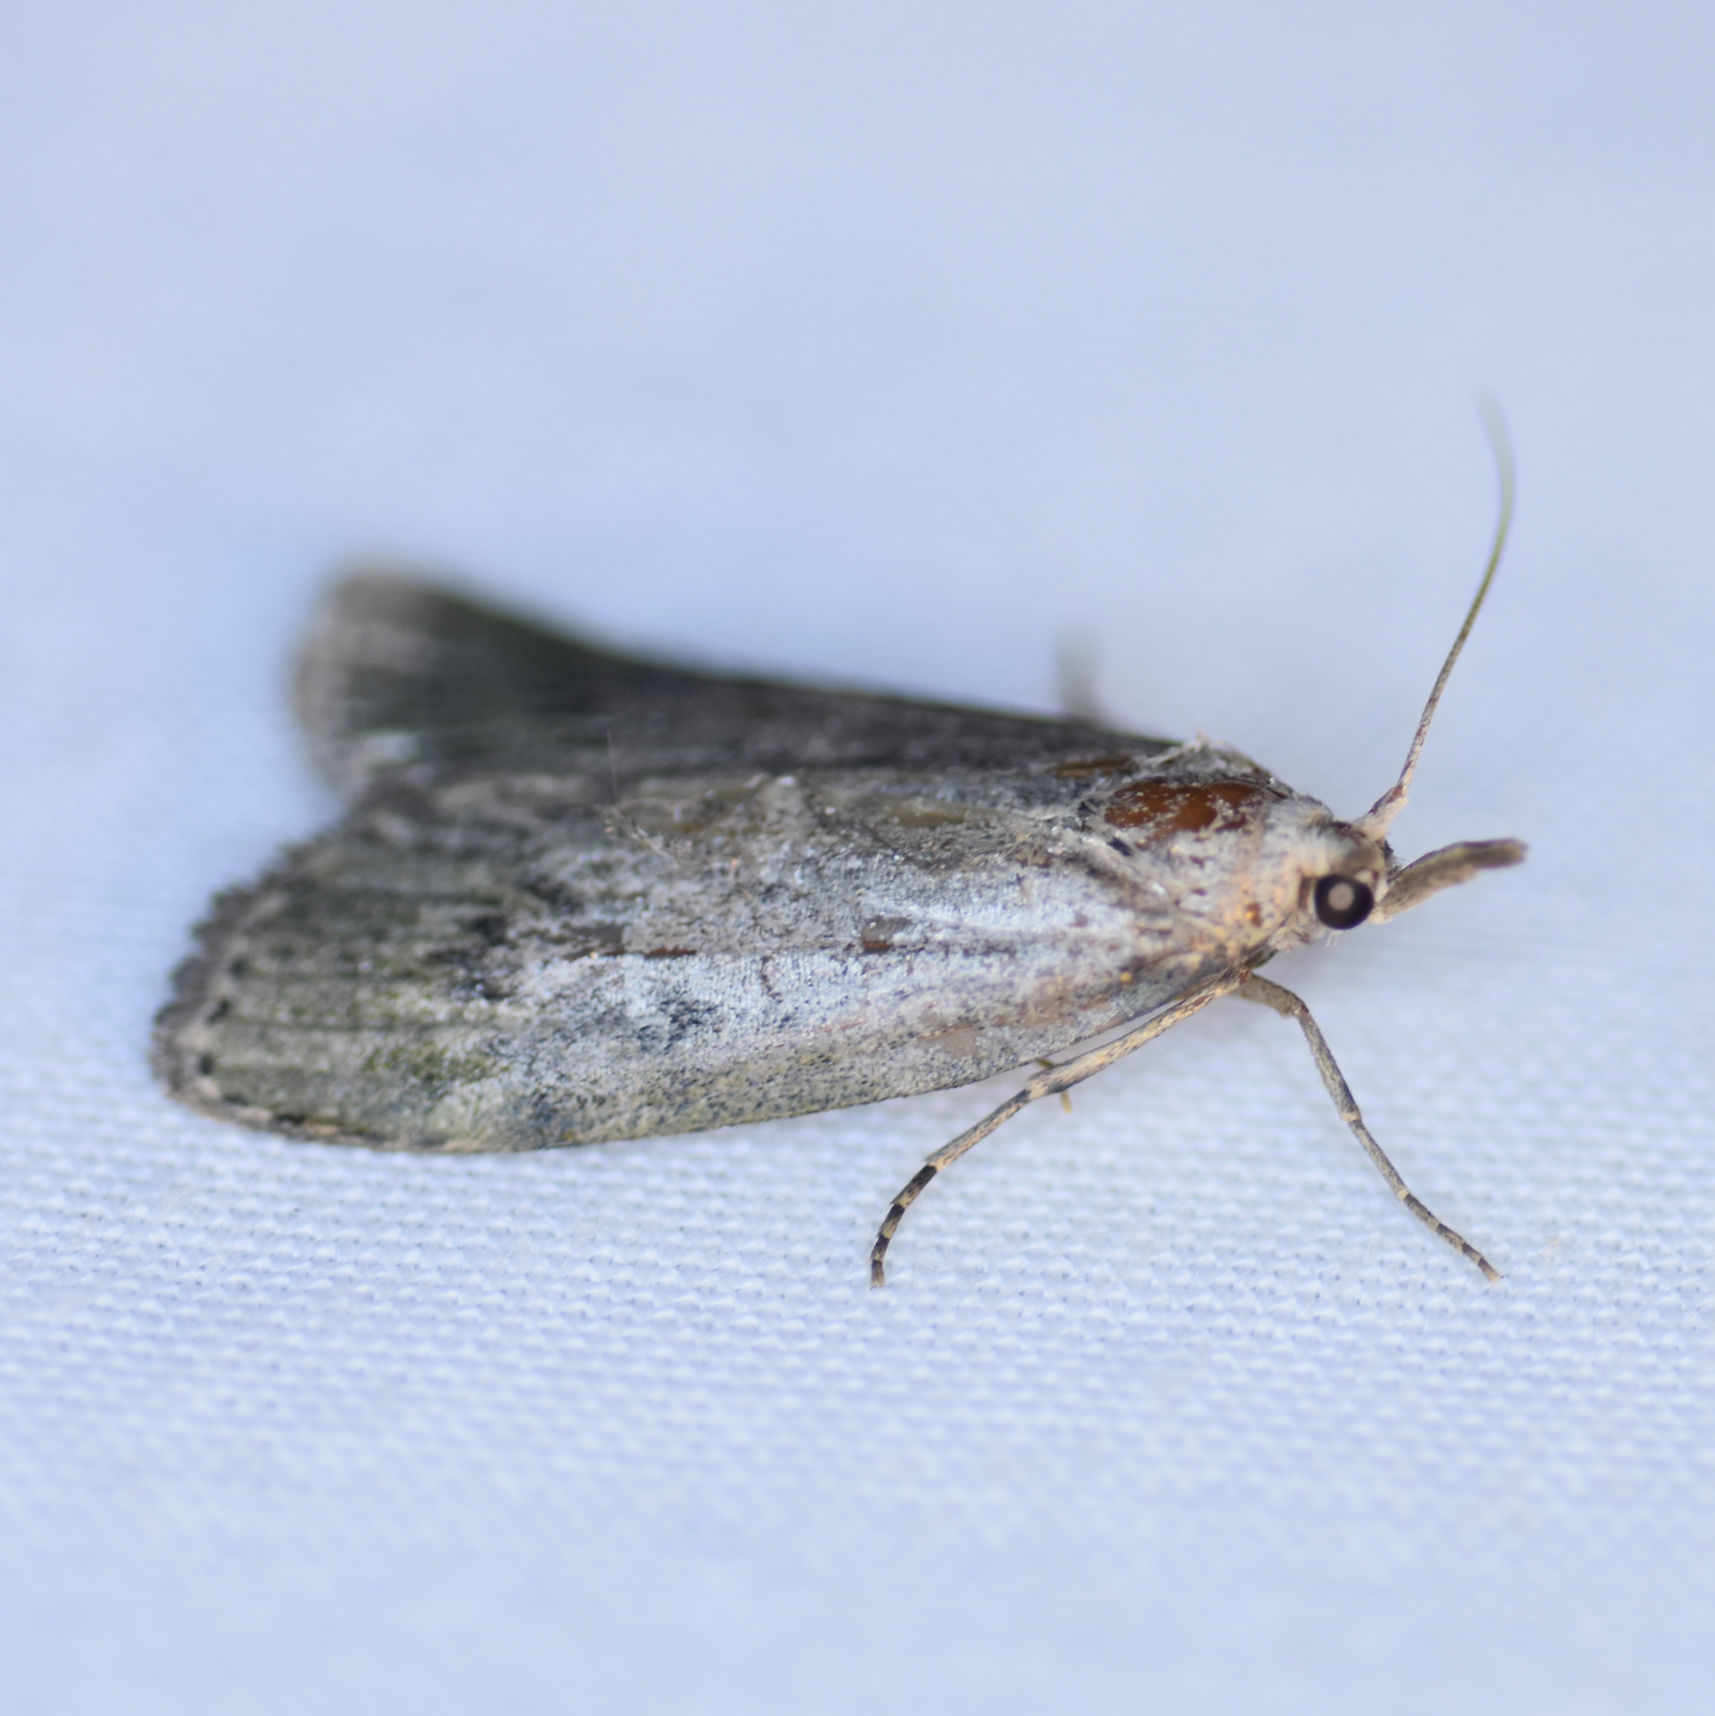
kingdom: Animalia
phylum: Arthropoda
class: Insecta
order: Lepidoptera
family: Pyralidae
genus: Aphomia
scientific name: Aphomia sociella
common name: Bee moth
